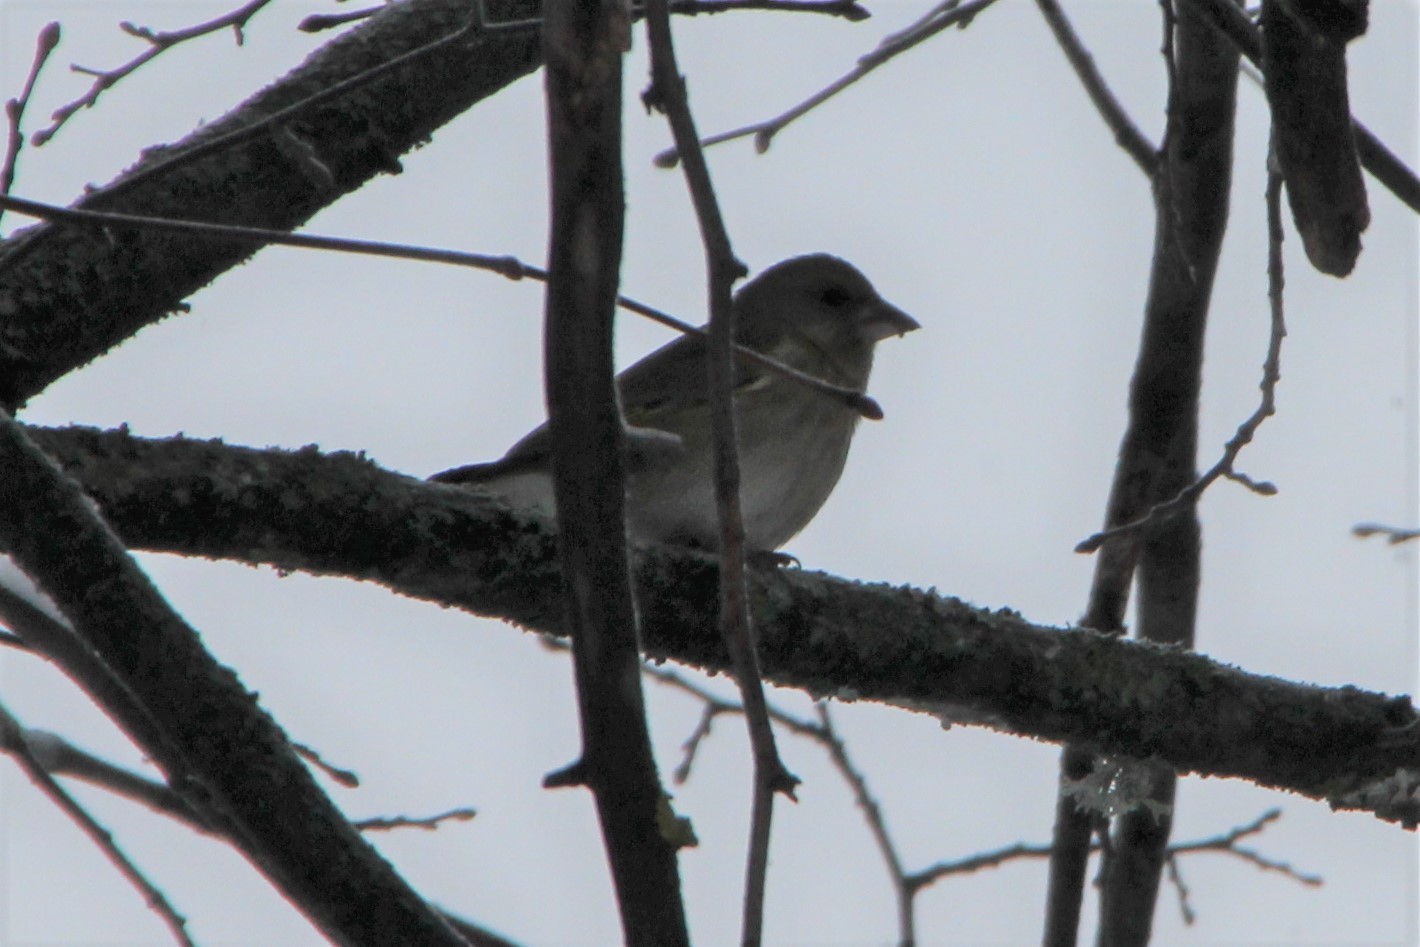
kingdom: Plantae
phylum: Tracheophyta
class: Liliopsida
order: Poales
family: Poaceae
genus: Chloris
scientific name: Chloris chloris
